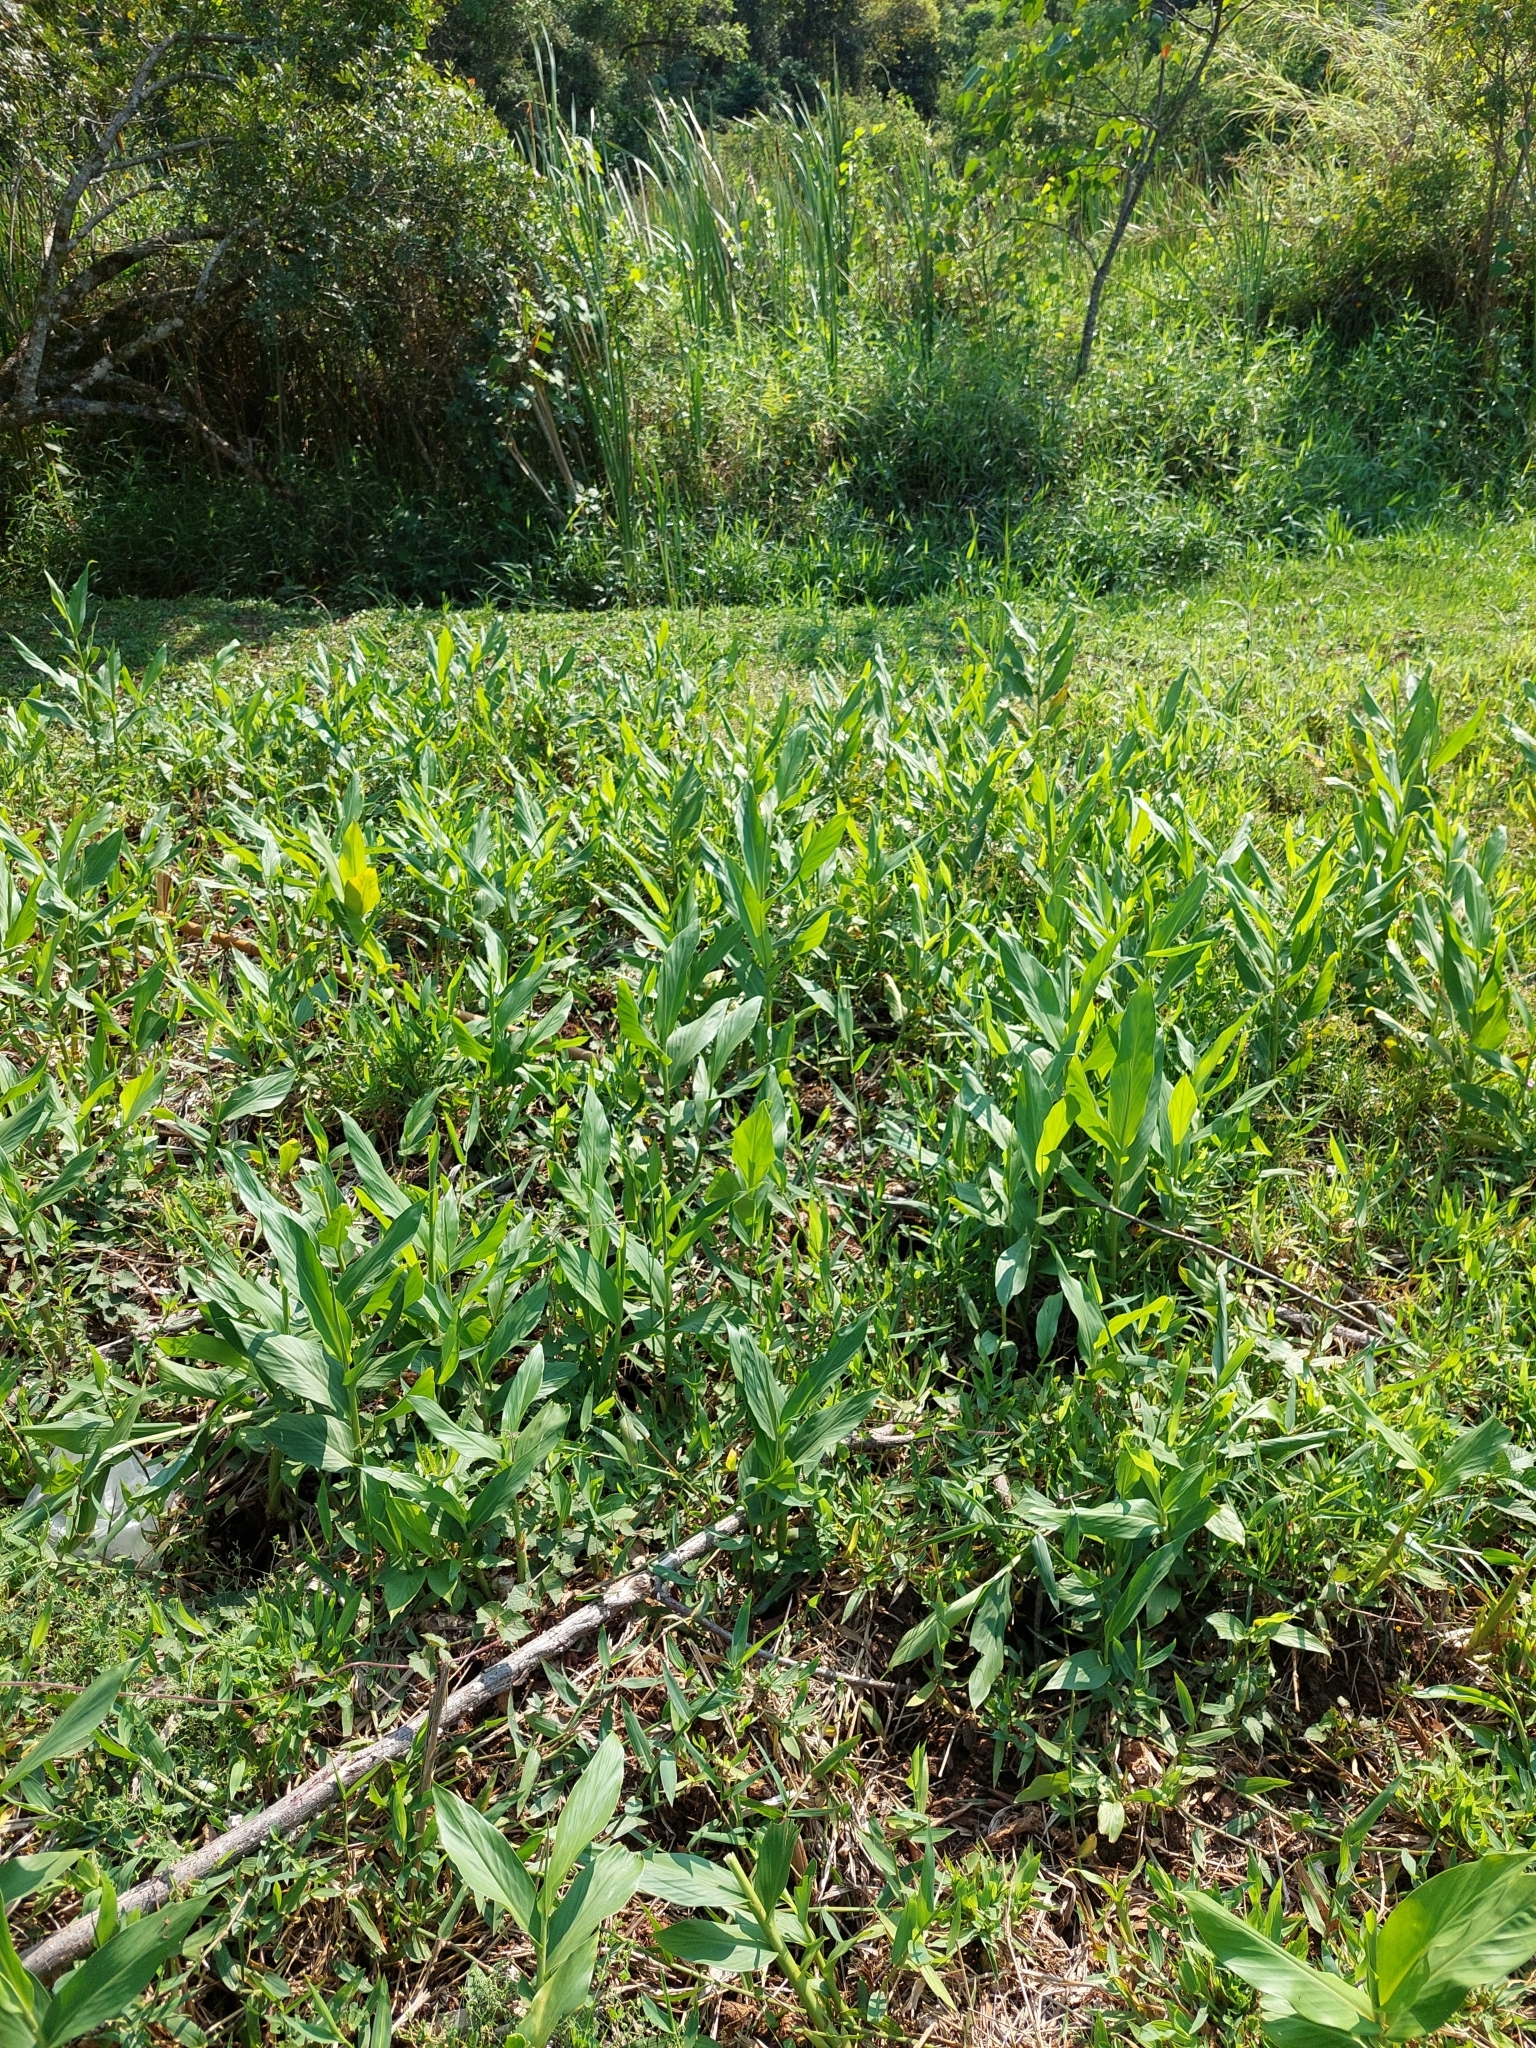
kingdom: Plantae
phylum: Tracheophyta
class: Liliopsida
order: Zingiberales
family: Zingiberaceae
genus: Hedychium
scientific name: Hedychium coronarium
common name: White garland-lily
